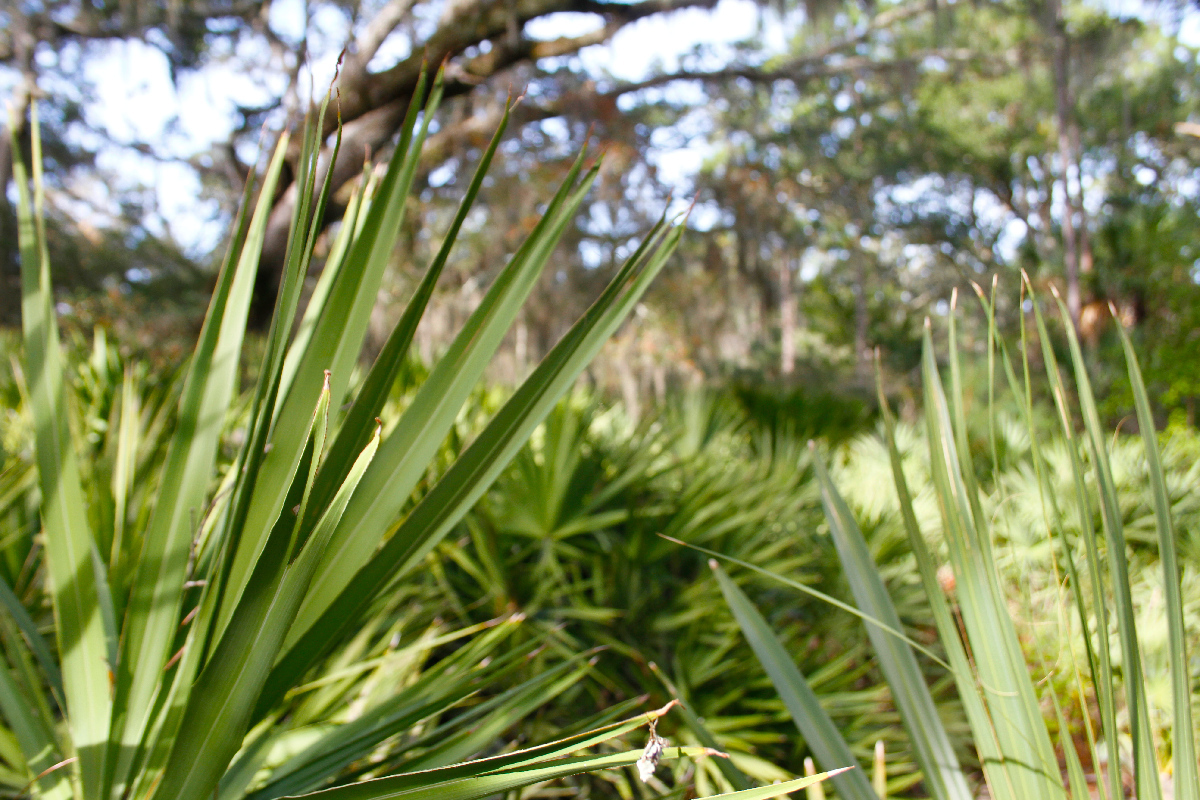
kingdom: Plantae
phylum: Tracheophyta
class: Liliopsida
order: Arecales
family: Arecaceae
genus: Serenoa
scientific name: Serenoa repens
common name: Saw-palmetto
